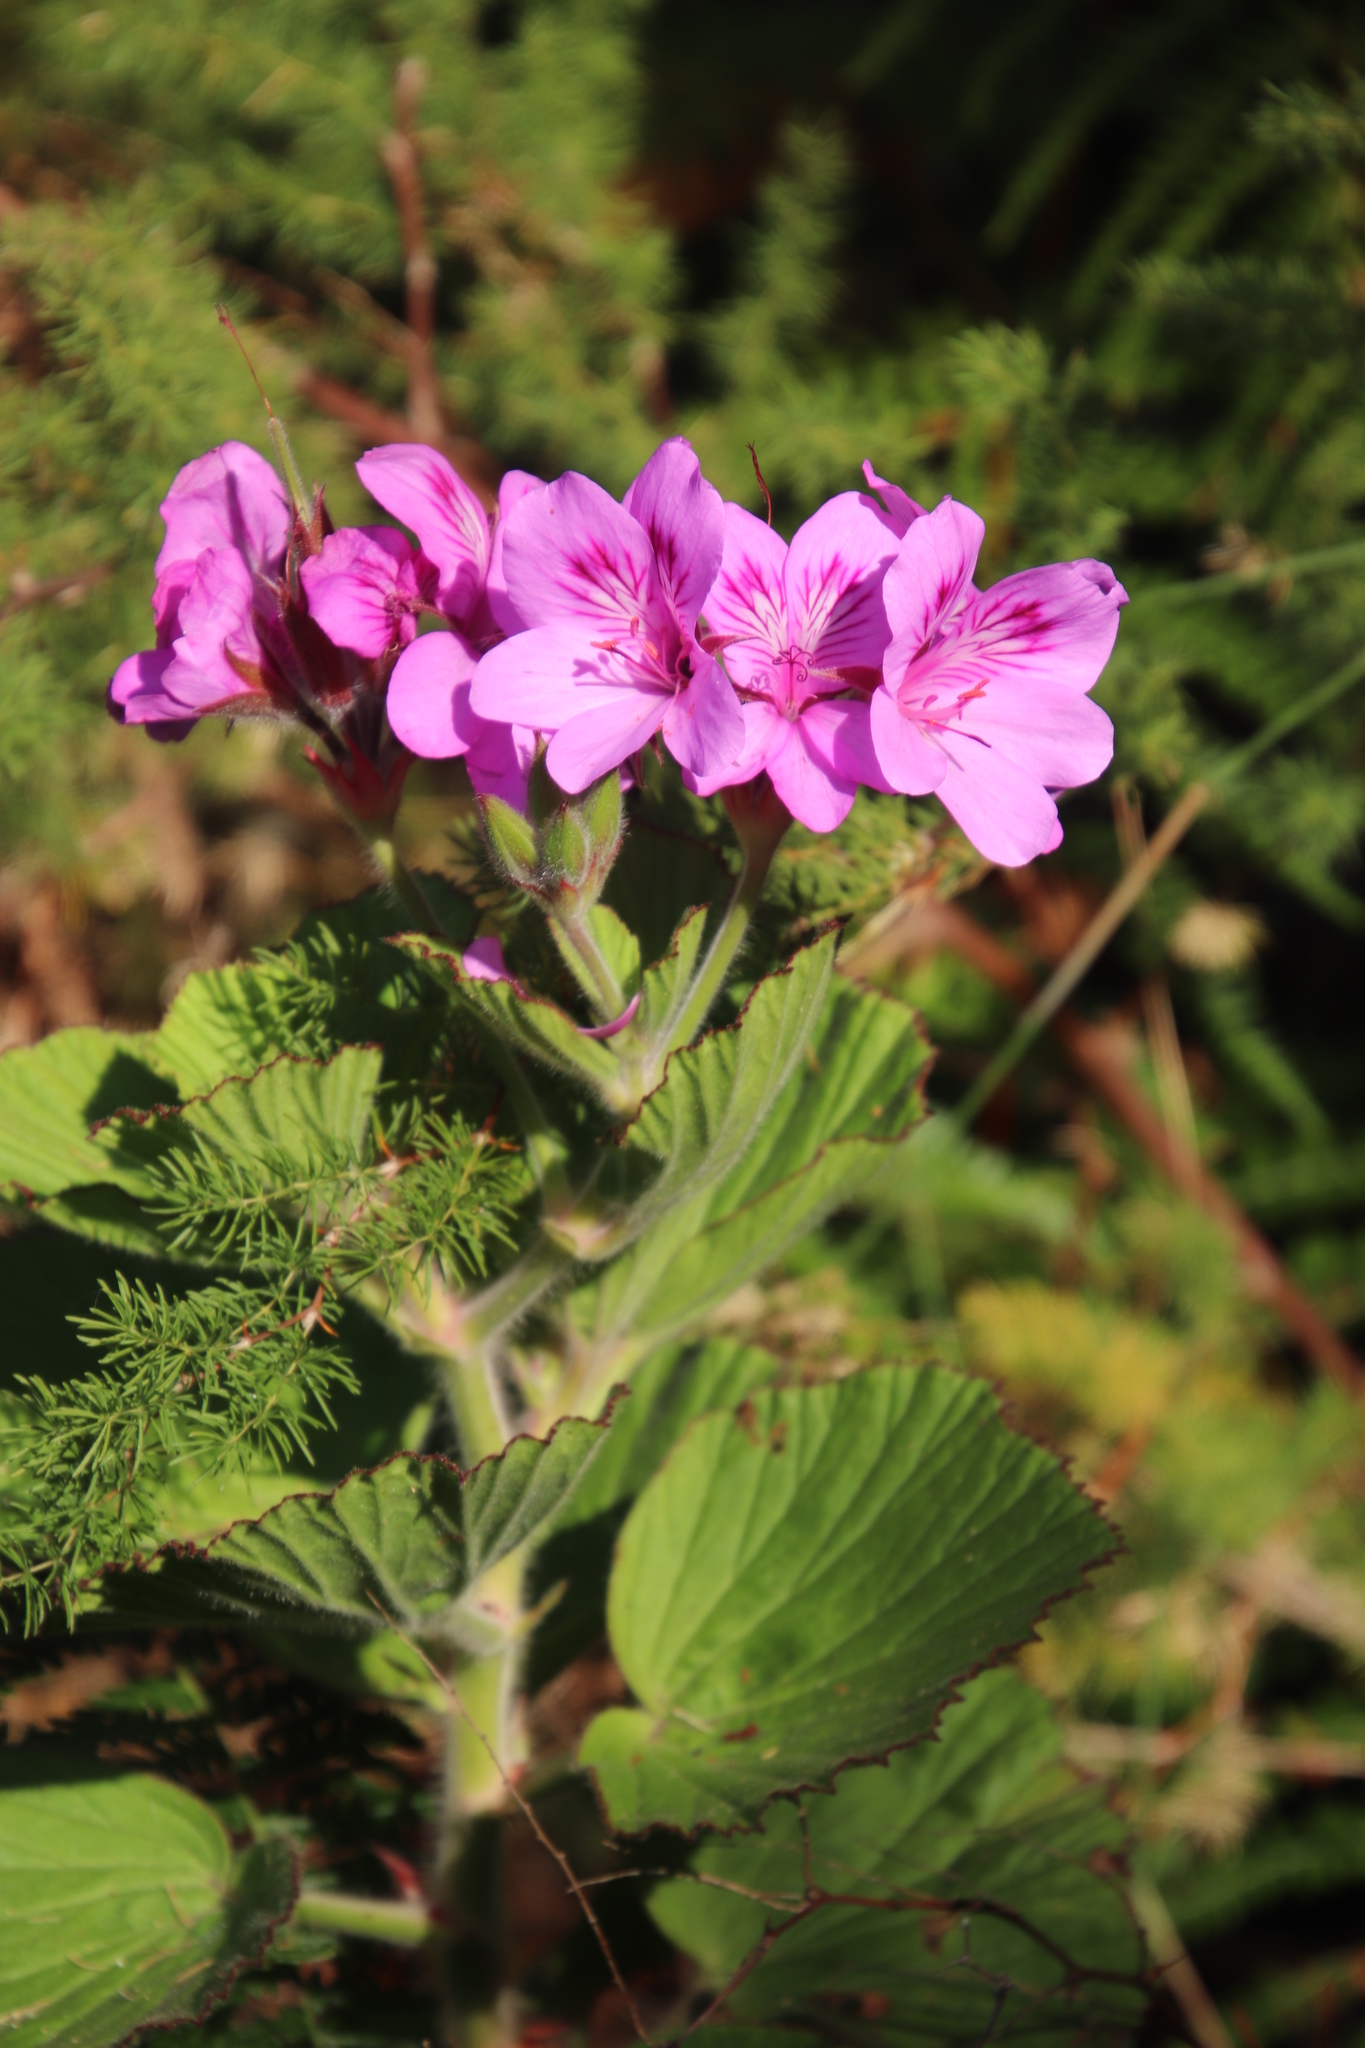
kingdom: Plantae
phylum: Tracheophyta
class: Magnoliopsida
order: Geraniales
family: Geraniaceae
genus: Pelargonium
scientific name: Pelargonium cucullatum
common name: Tree pelargonium
